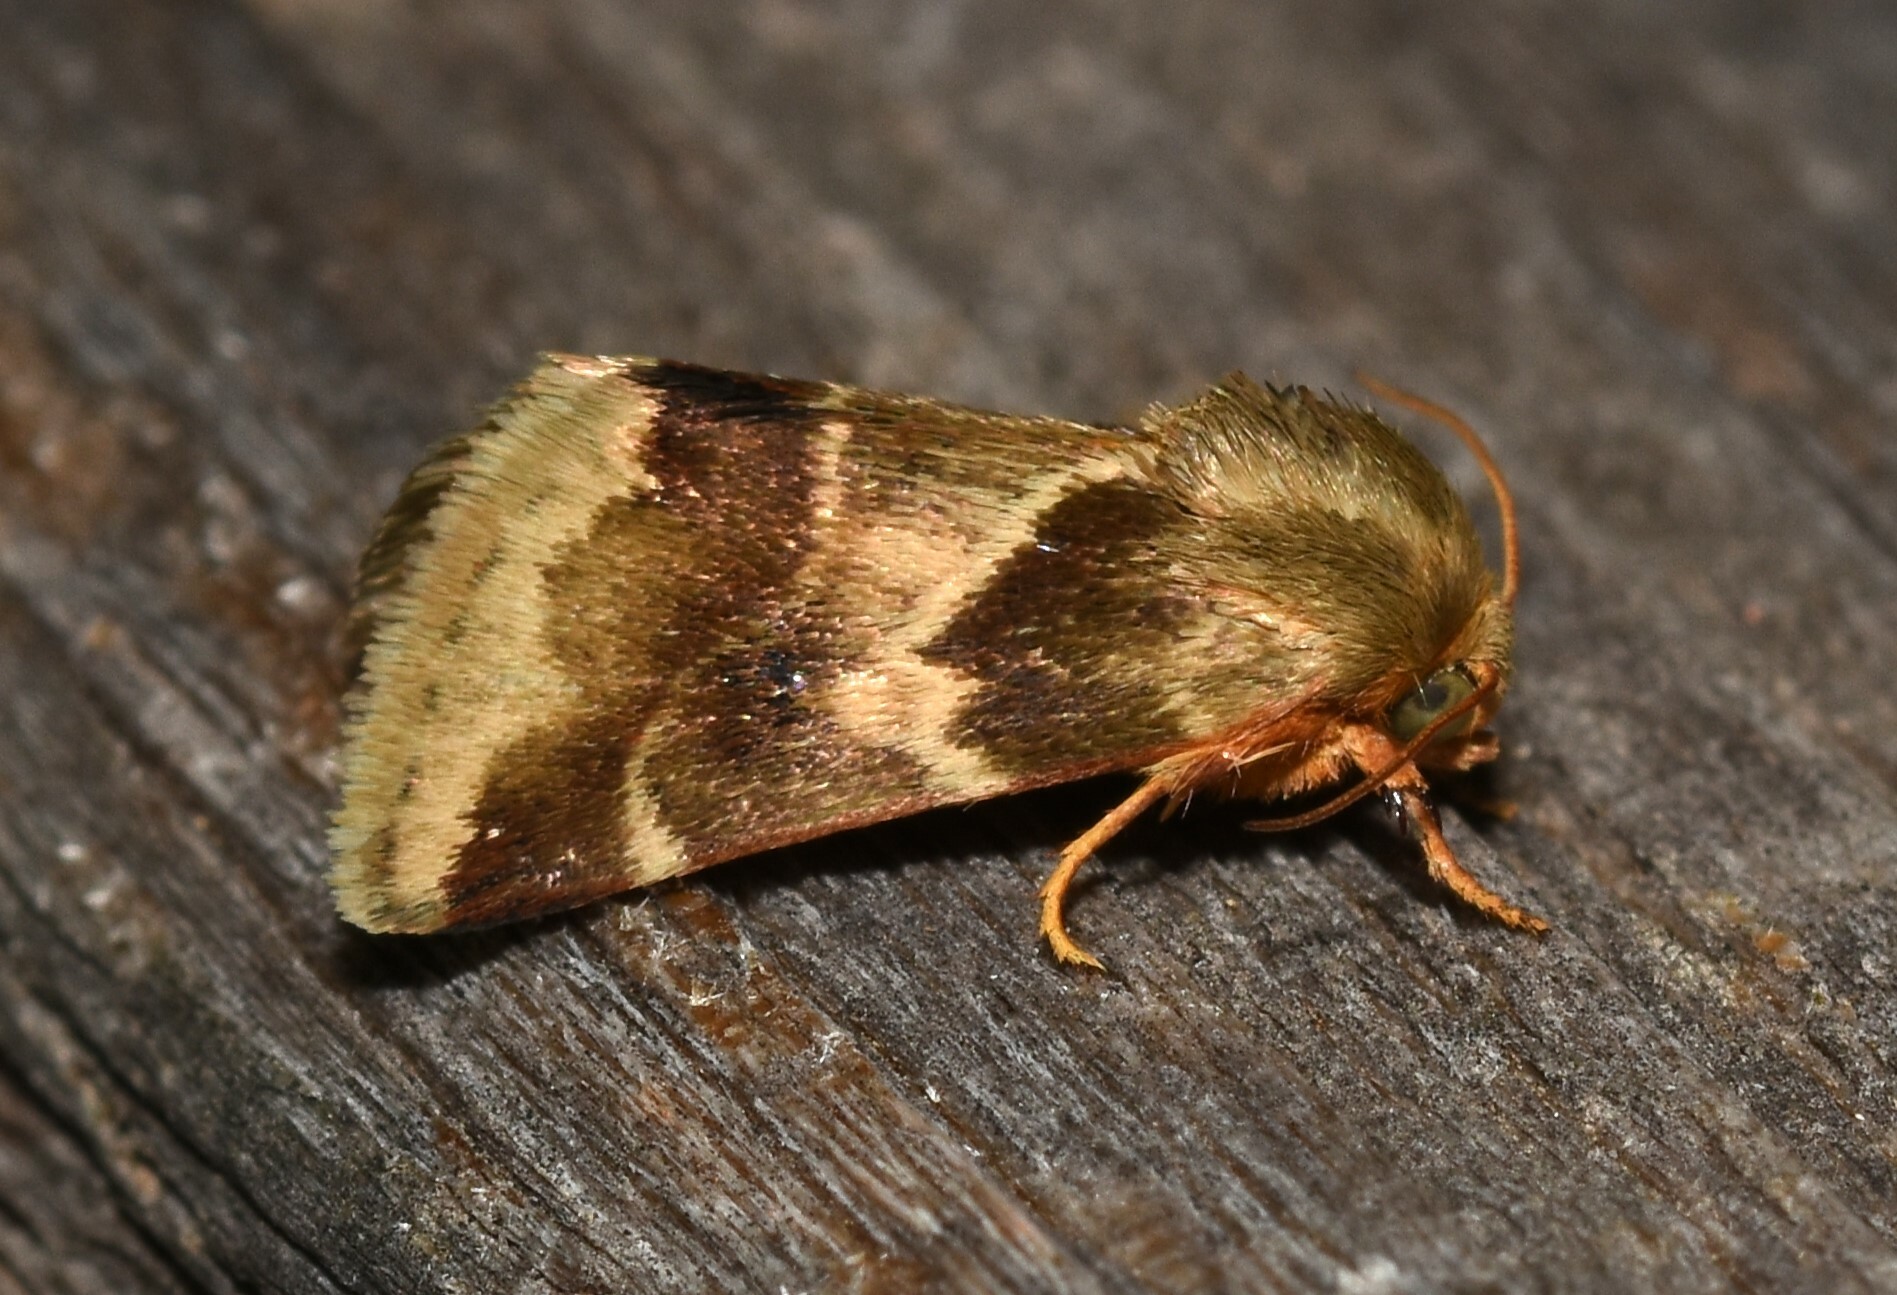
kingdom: Animalia
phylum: Arthropoda
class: Insecta
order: Lepidoptera
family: Noctuidae
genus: Schinia
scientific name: Schinia lynx
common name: Lynx flower moth
